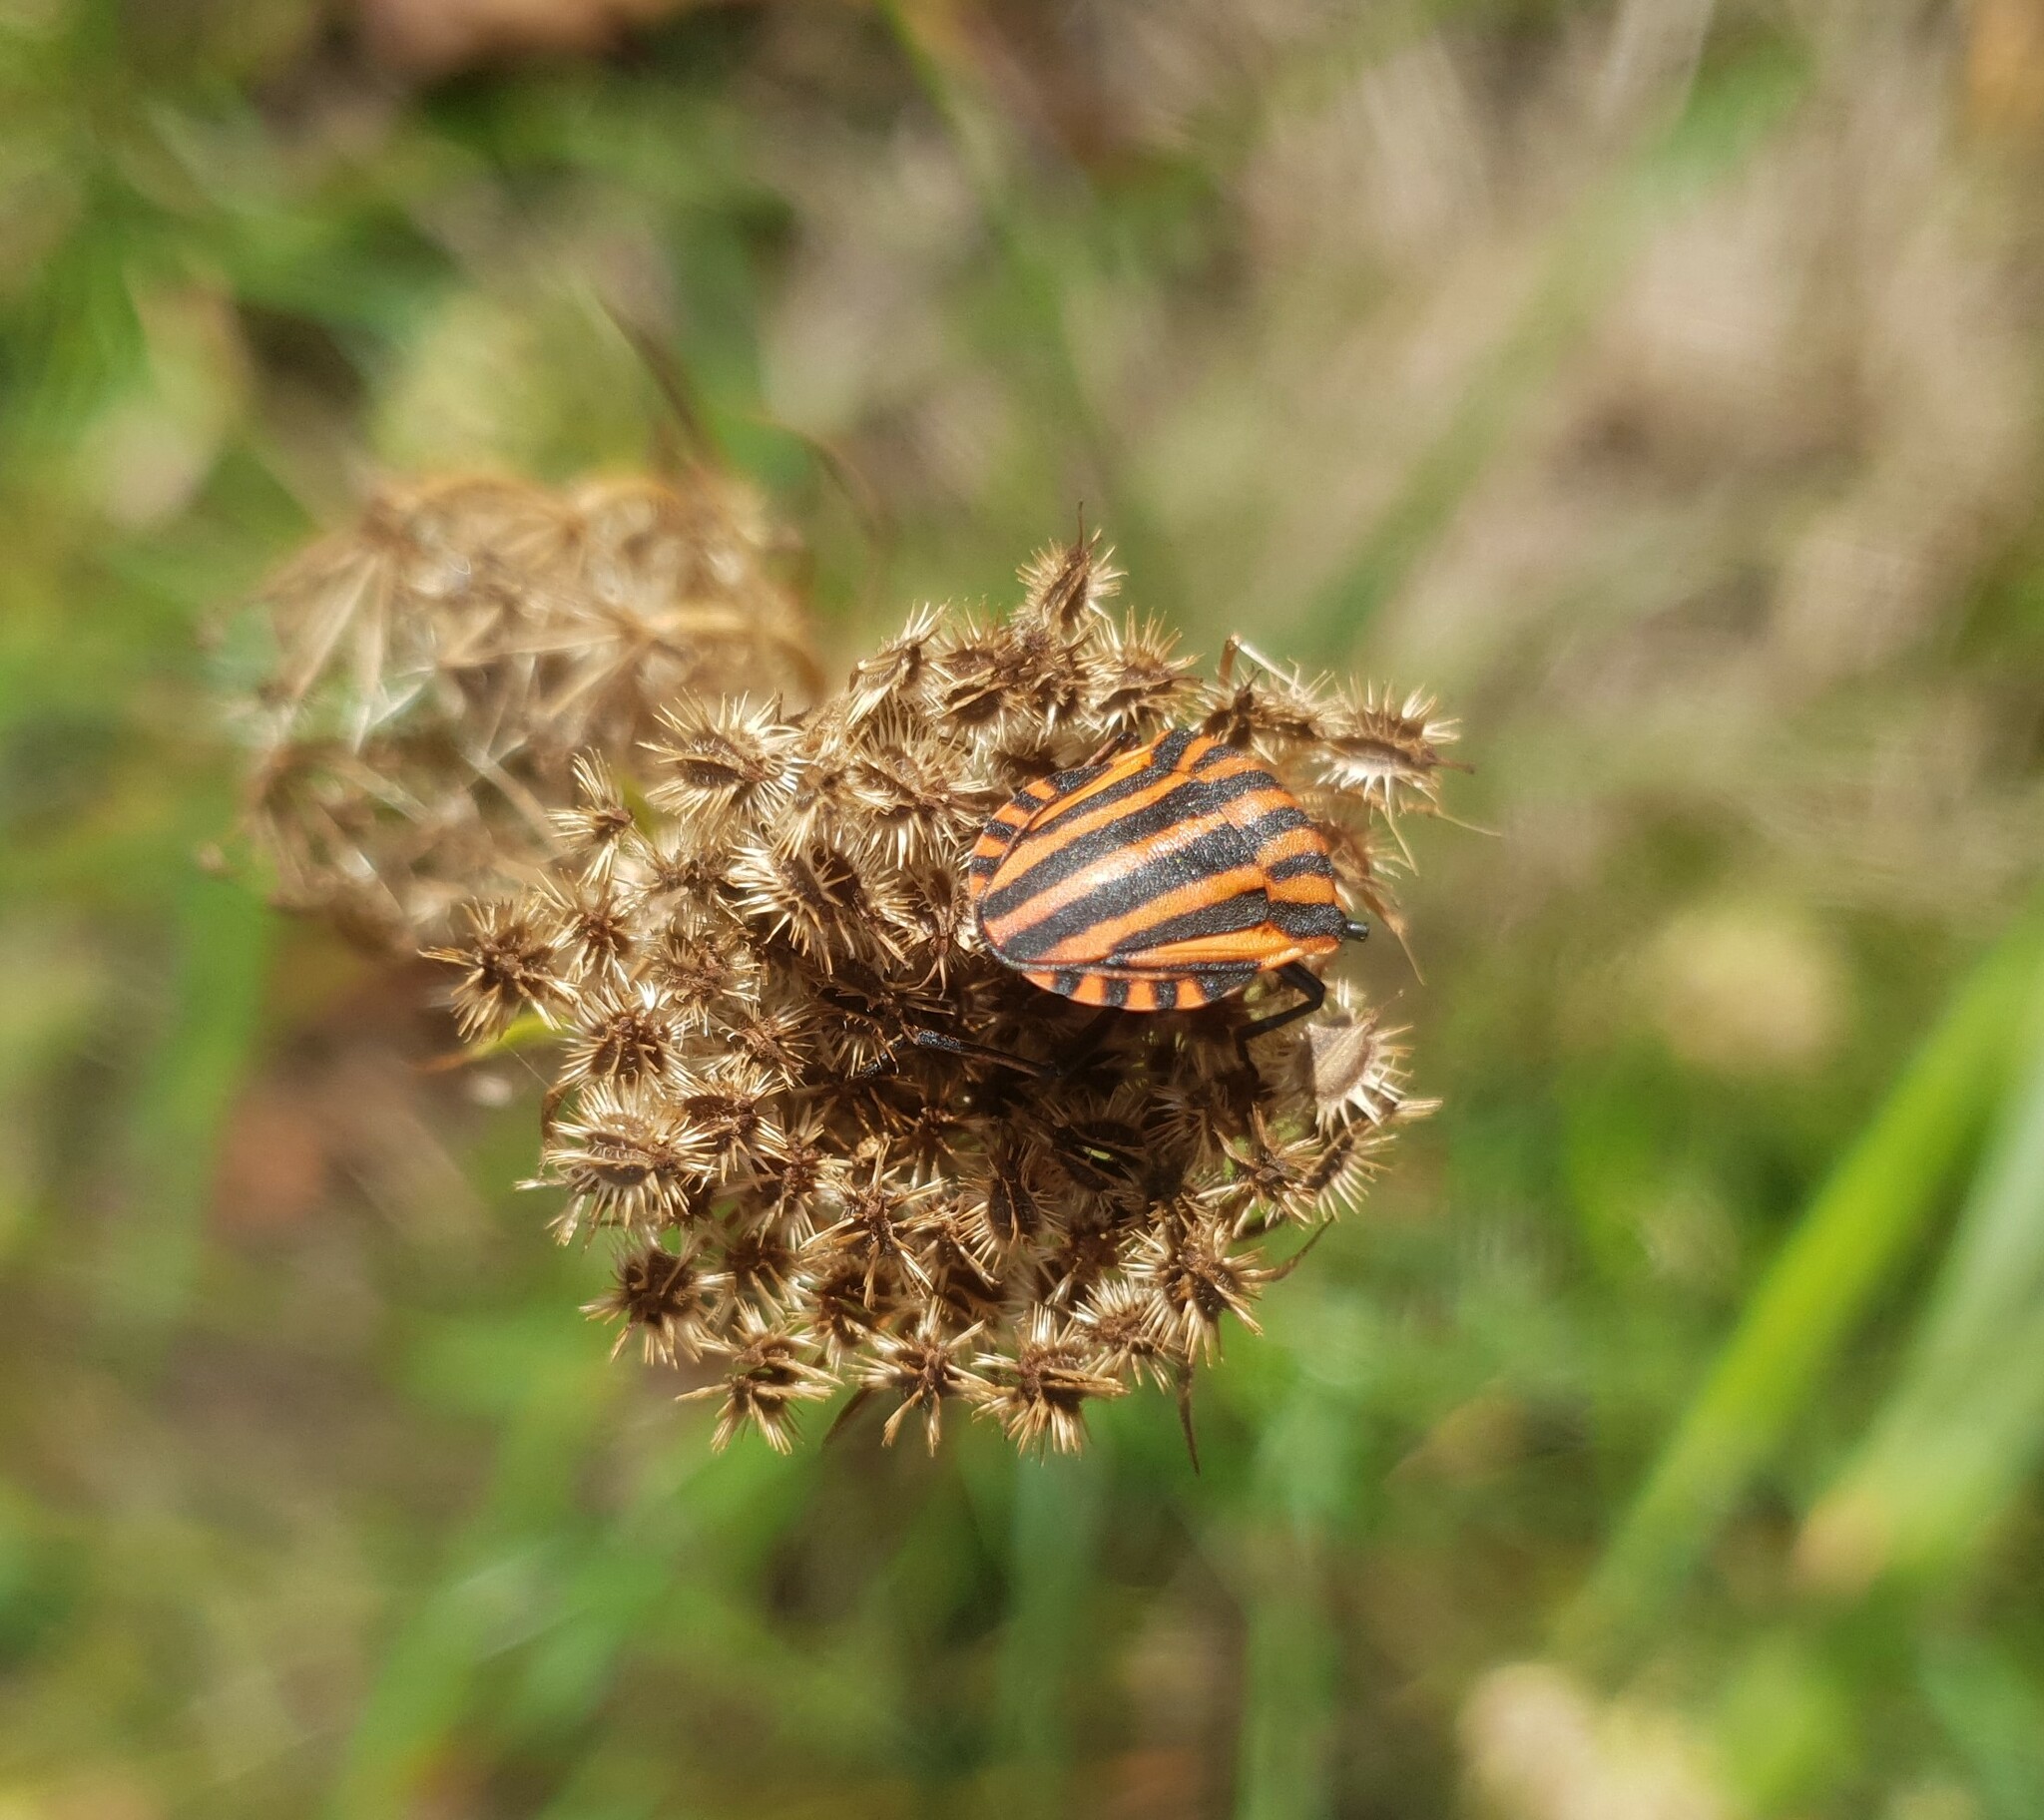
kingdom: Animalia
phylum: Arthropoda
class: Insecta
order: Hemiptera
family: Pentatomidae
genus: Graphosoma
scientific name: Graphosoma italicum
